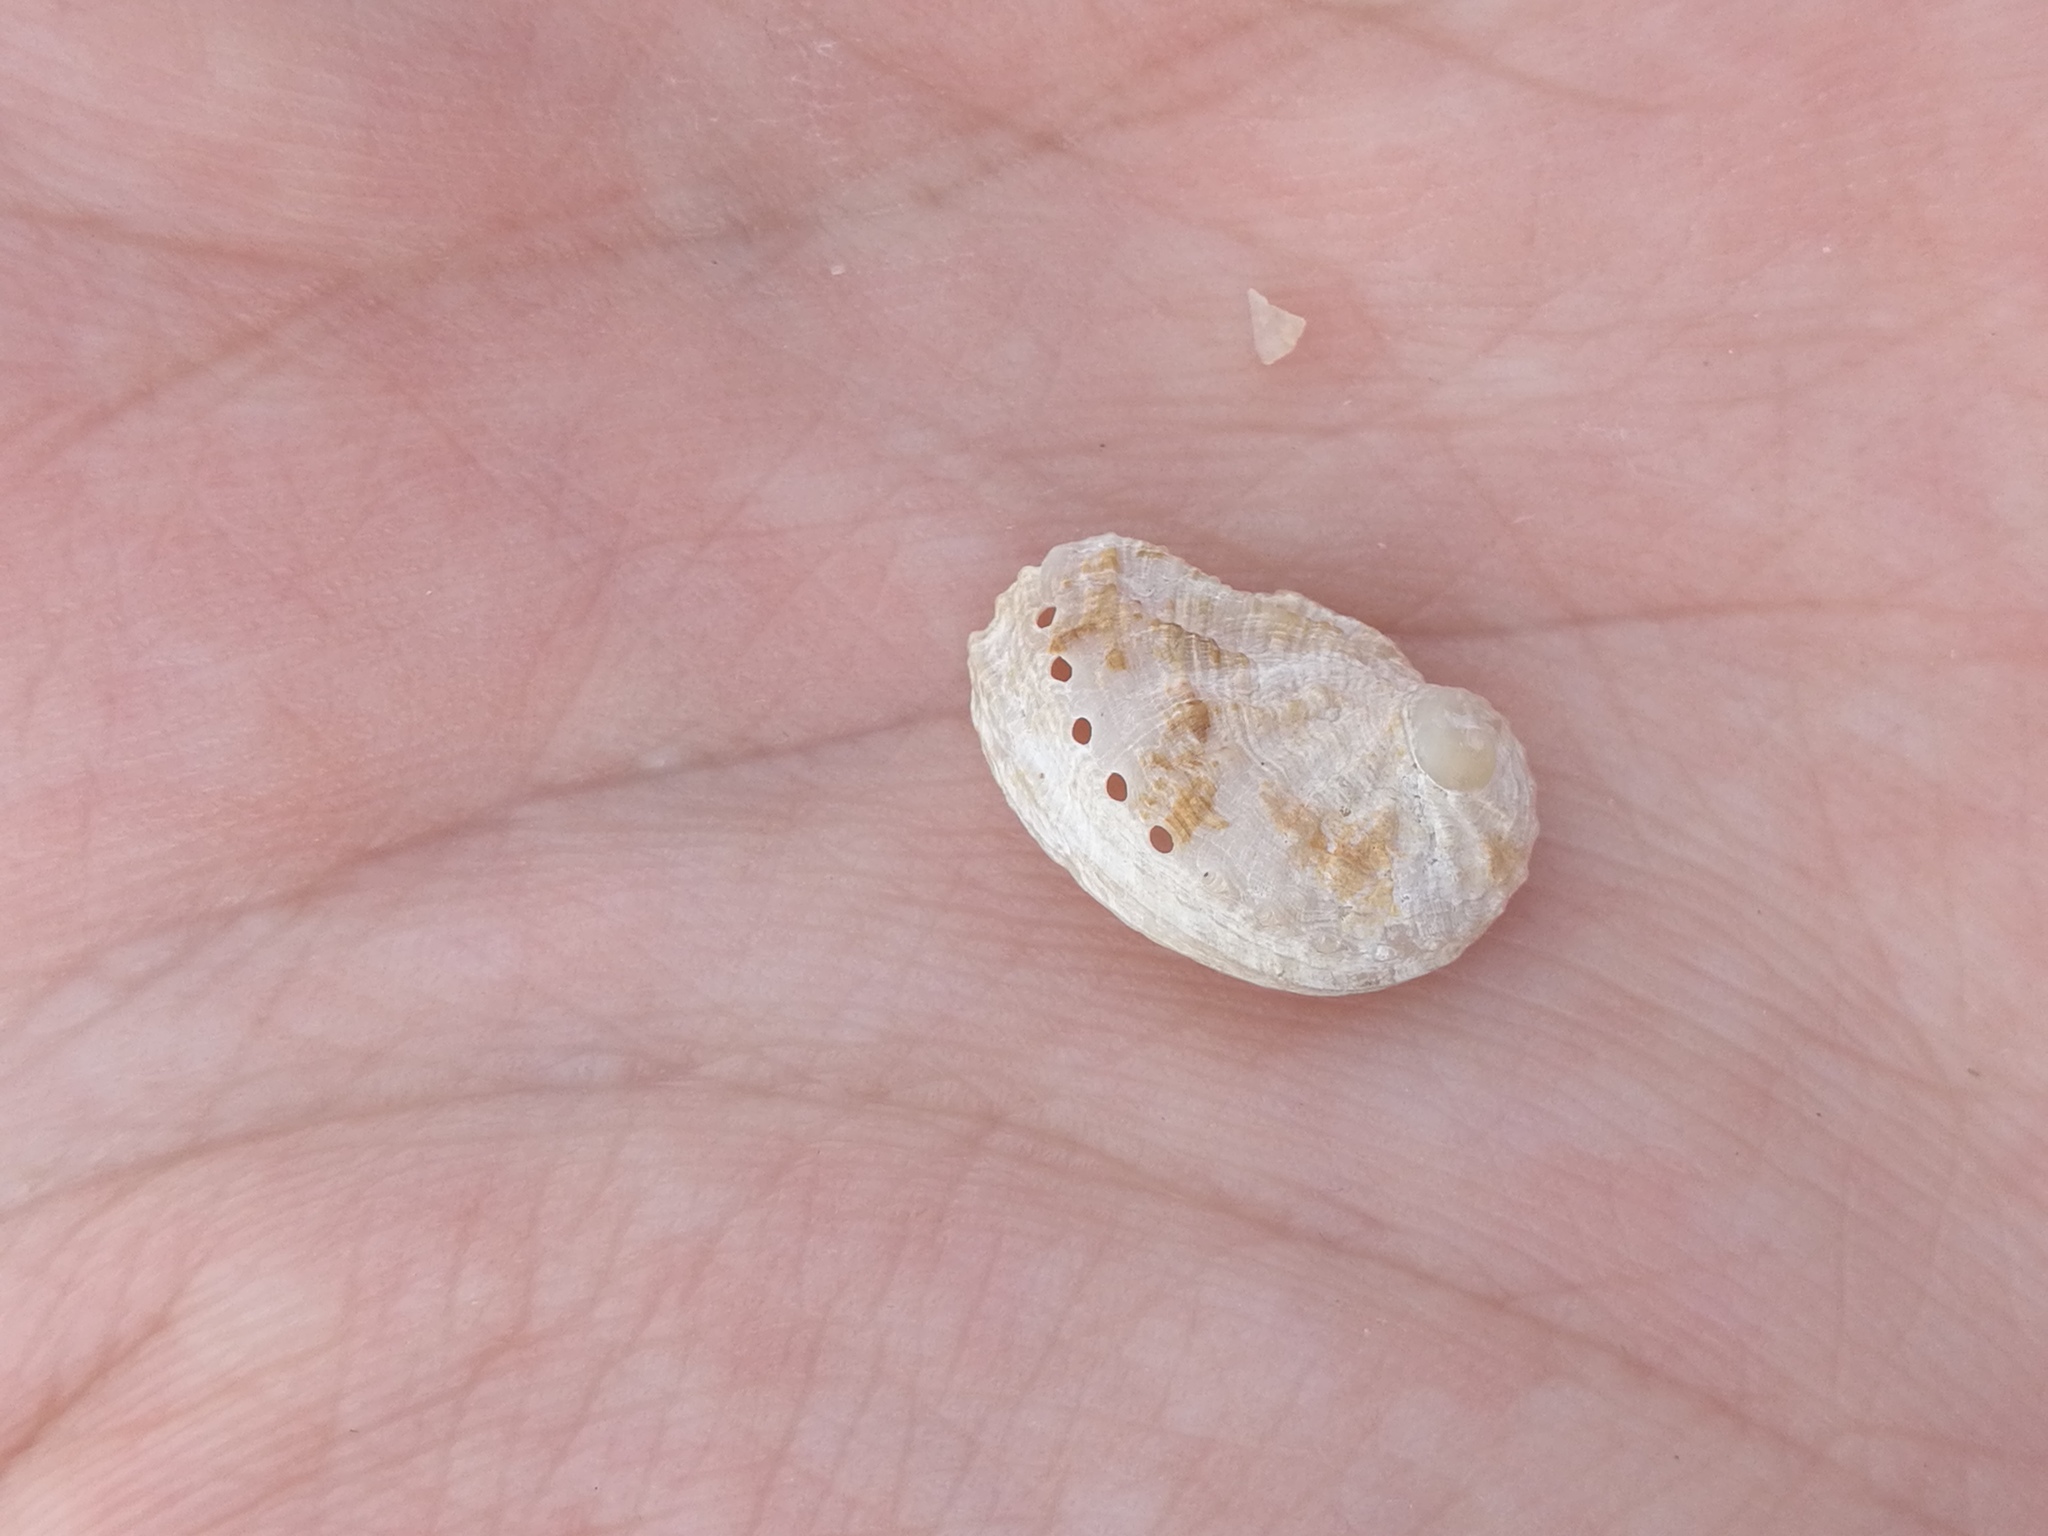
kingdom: Animalia
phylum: Mollusca
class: Gastropoda
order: Lepetellida
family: Haliotidae
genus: Haliotis
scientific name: Haliotis tuberculata
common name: Green ormer
